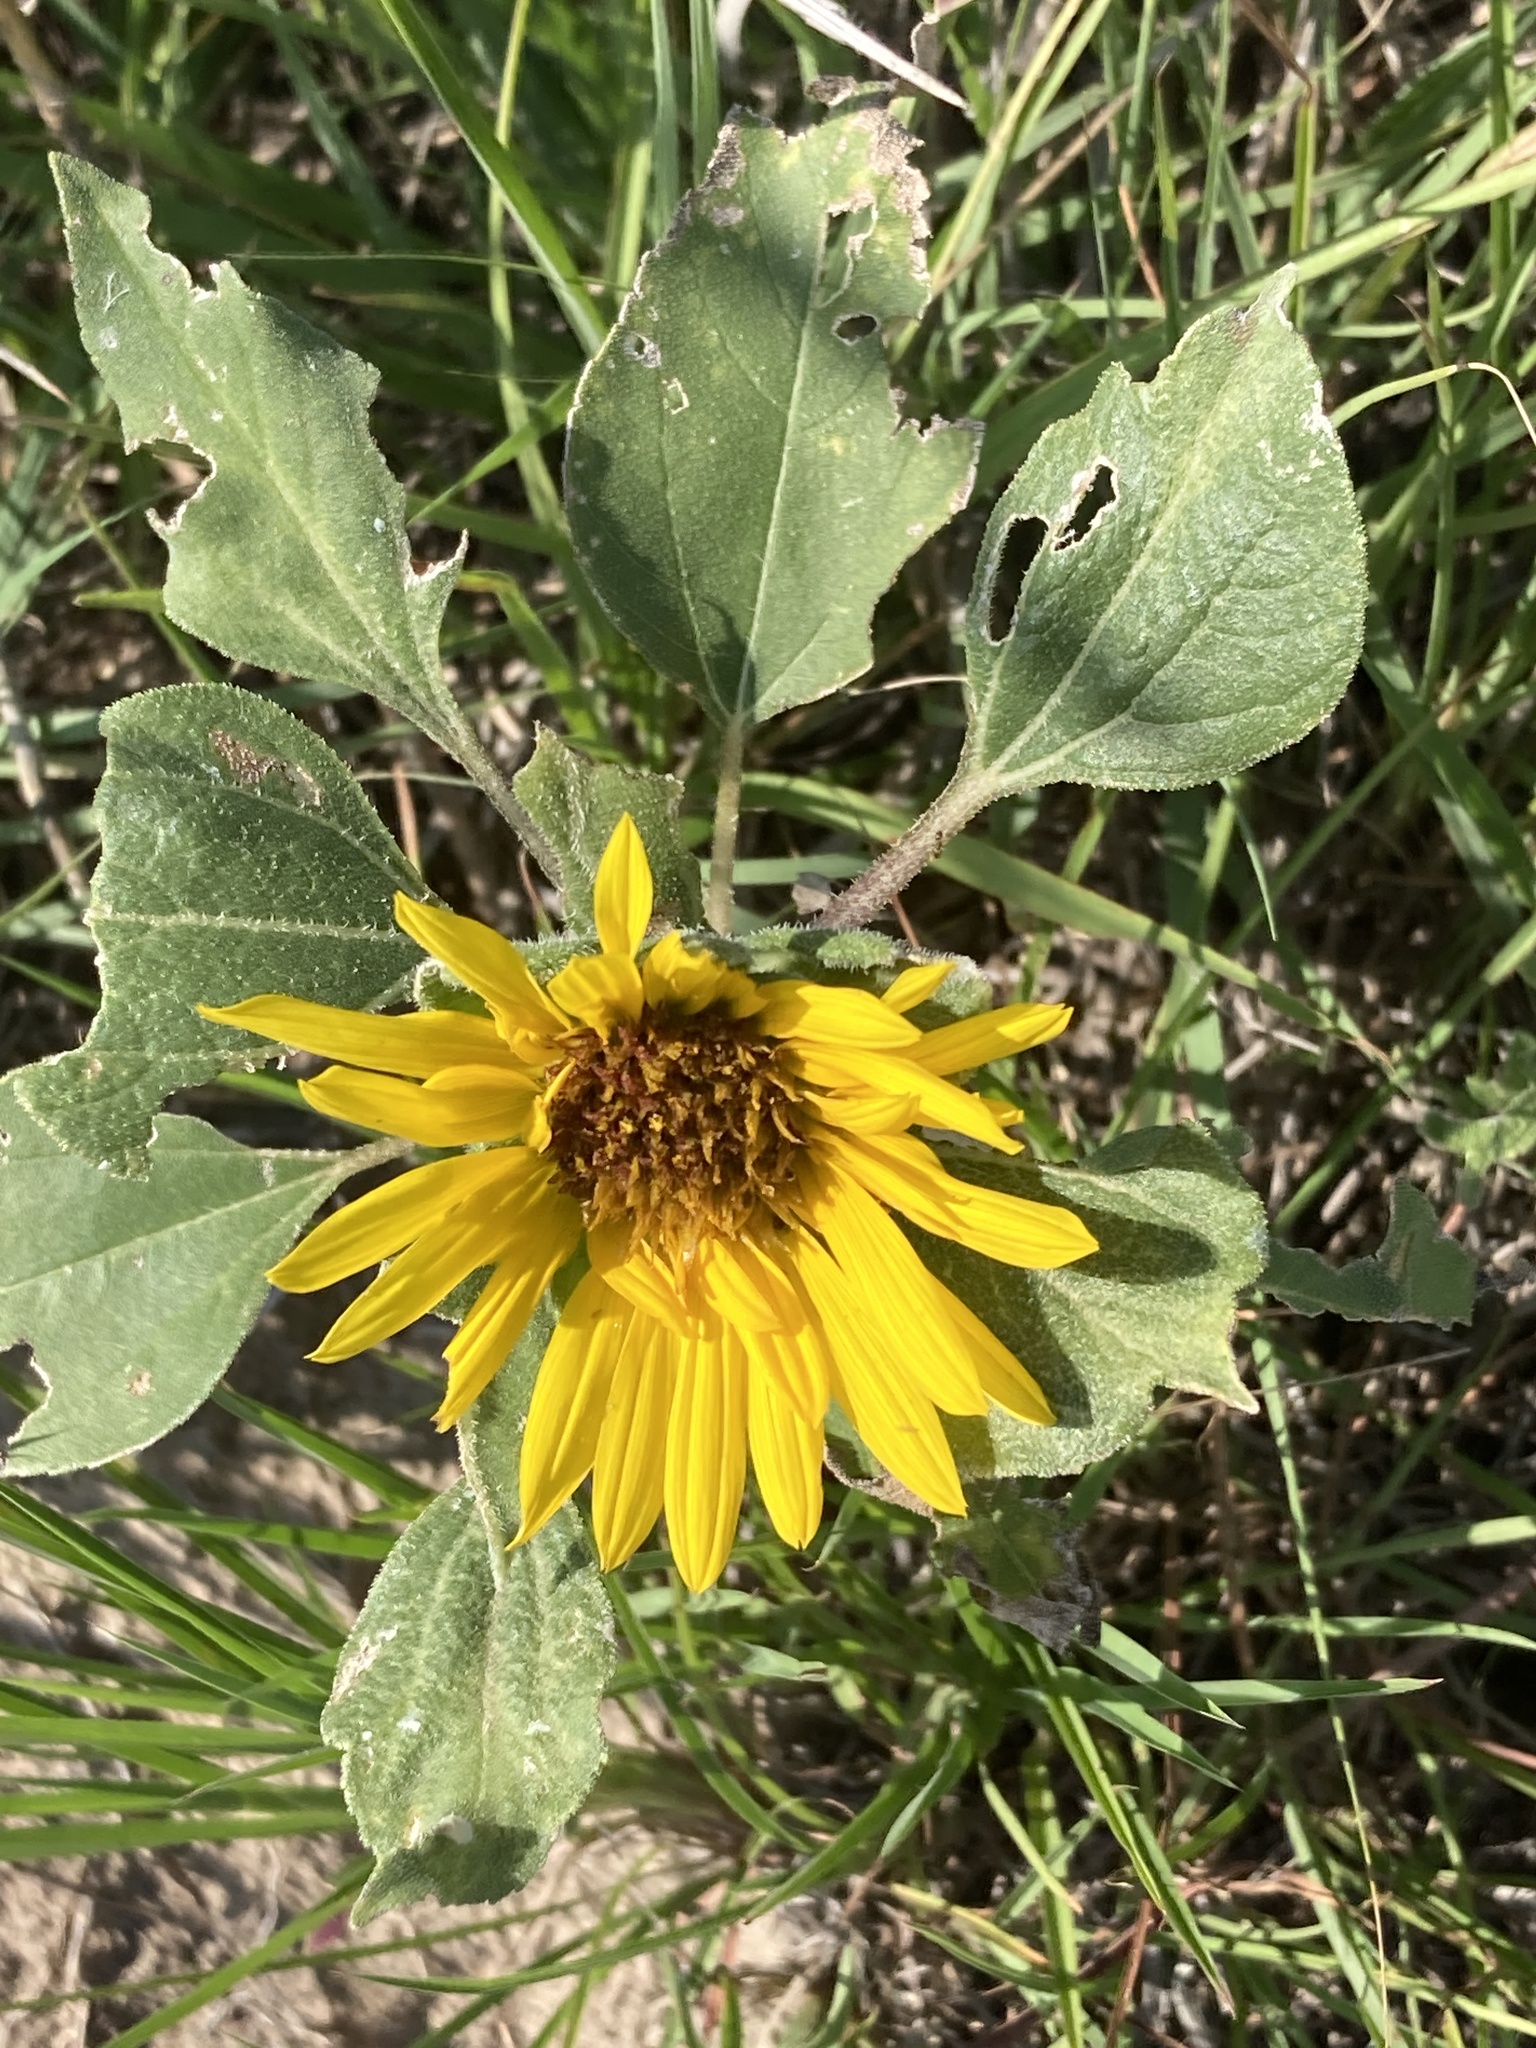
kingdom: Plantae
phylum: Tracheophyta
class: Magnoliopsida
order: Asterales
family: Asteraceae
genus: Helianthus
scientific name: Helianthus annuus
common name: Sunflower
